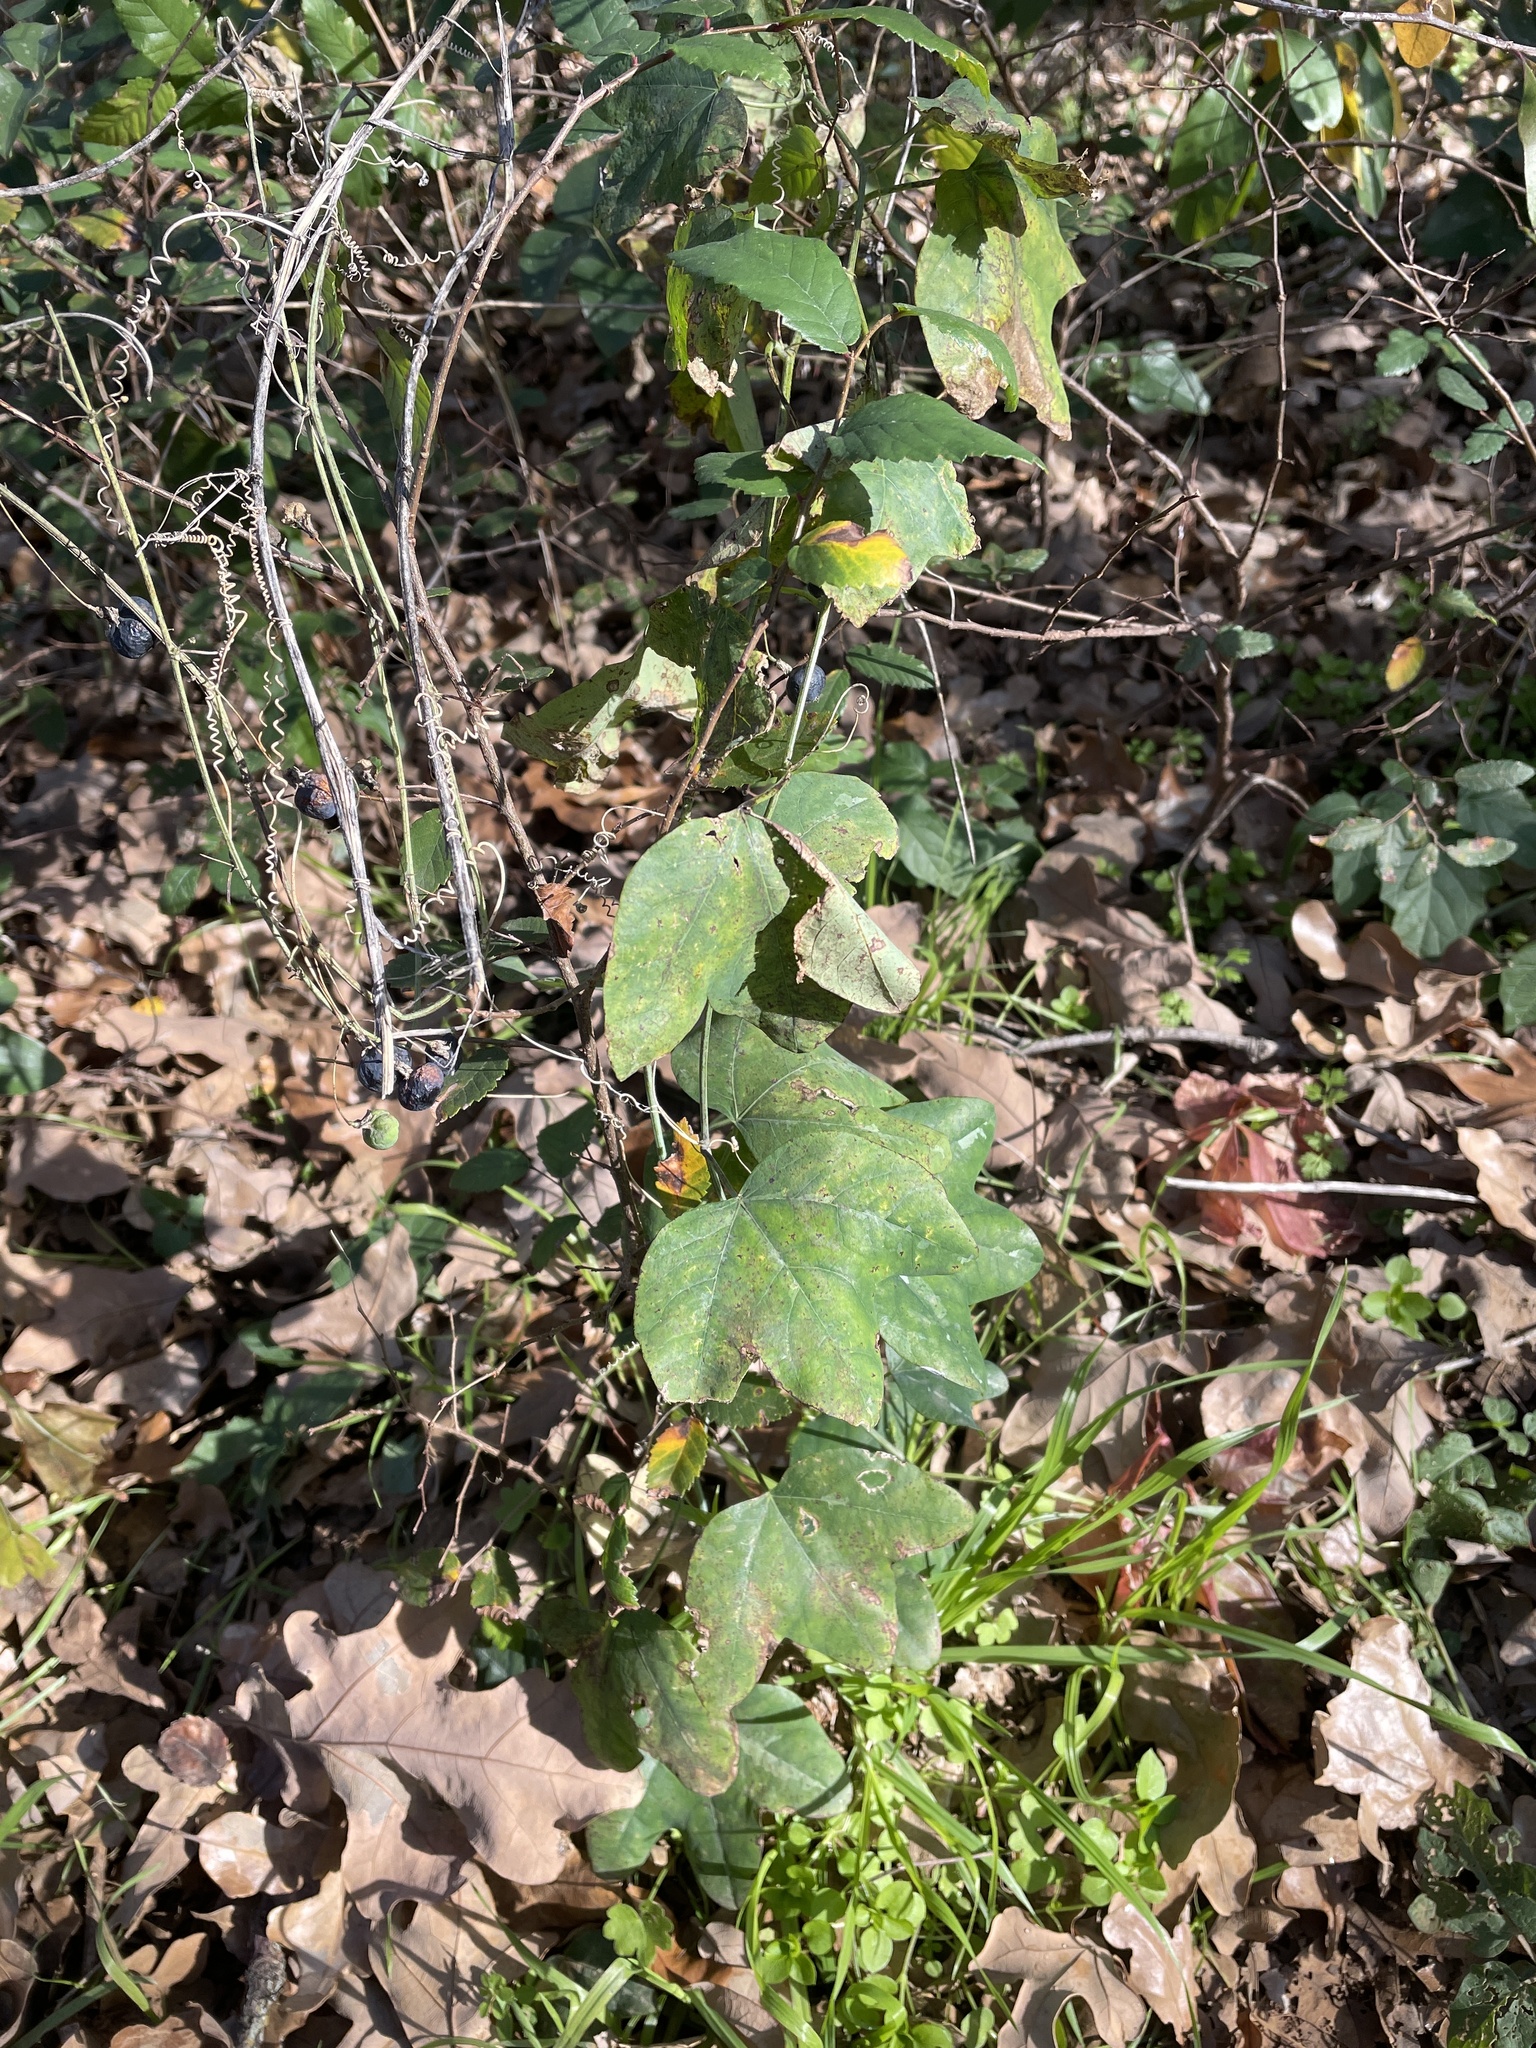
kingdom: Plantae
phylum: Tracheophyta
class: Magnoliopsida
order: Malpighiales
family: Passifloraceae
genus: Passiflora
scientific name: Passiflora lutea
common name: Yellow passionflower
